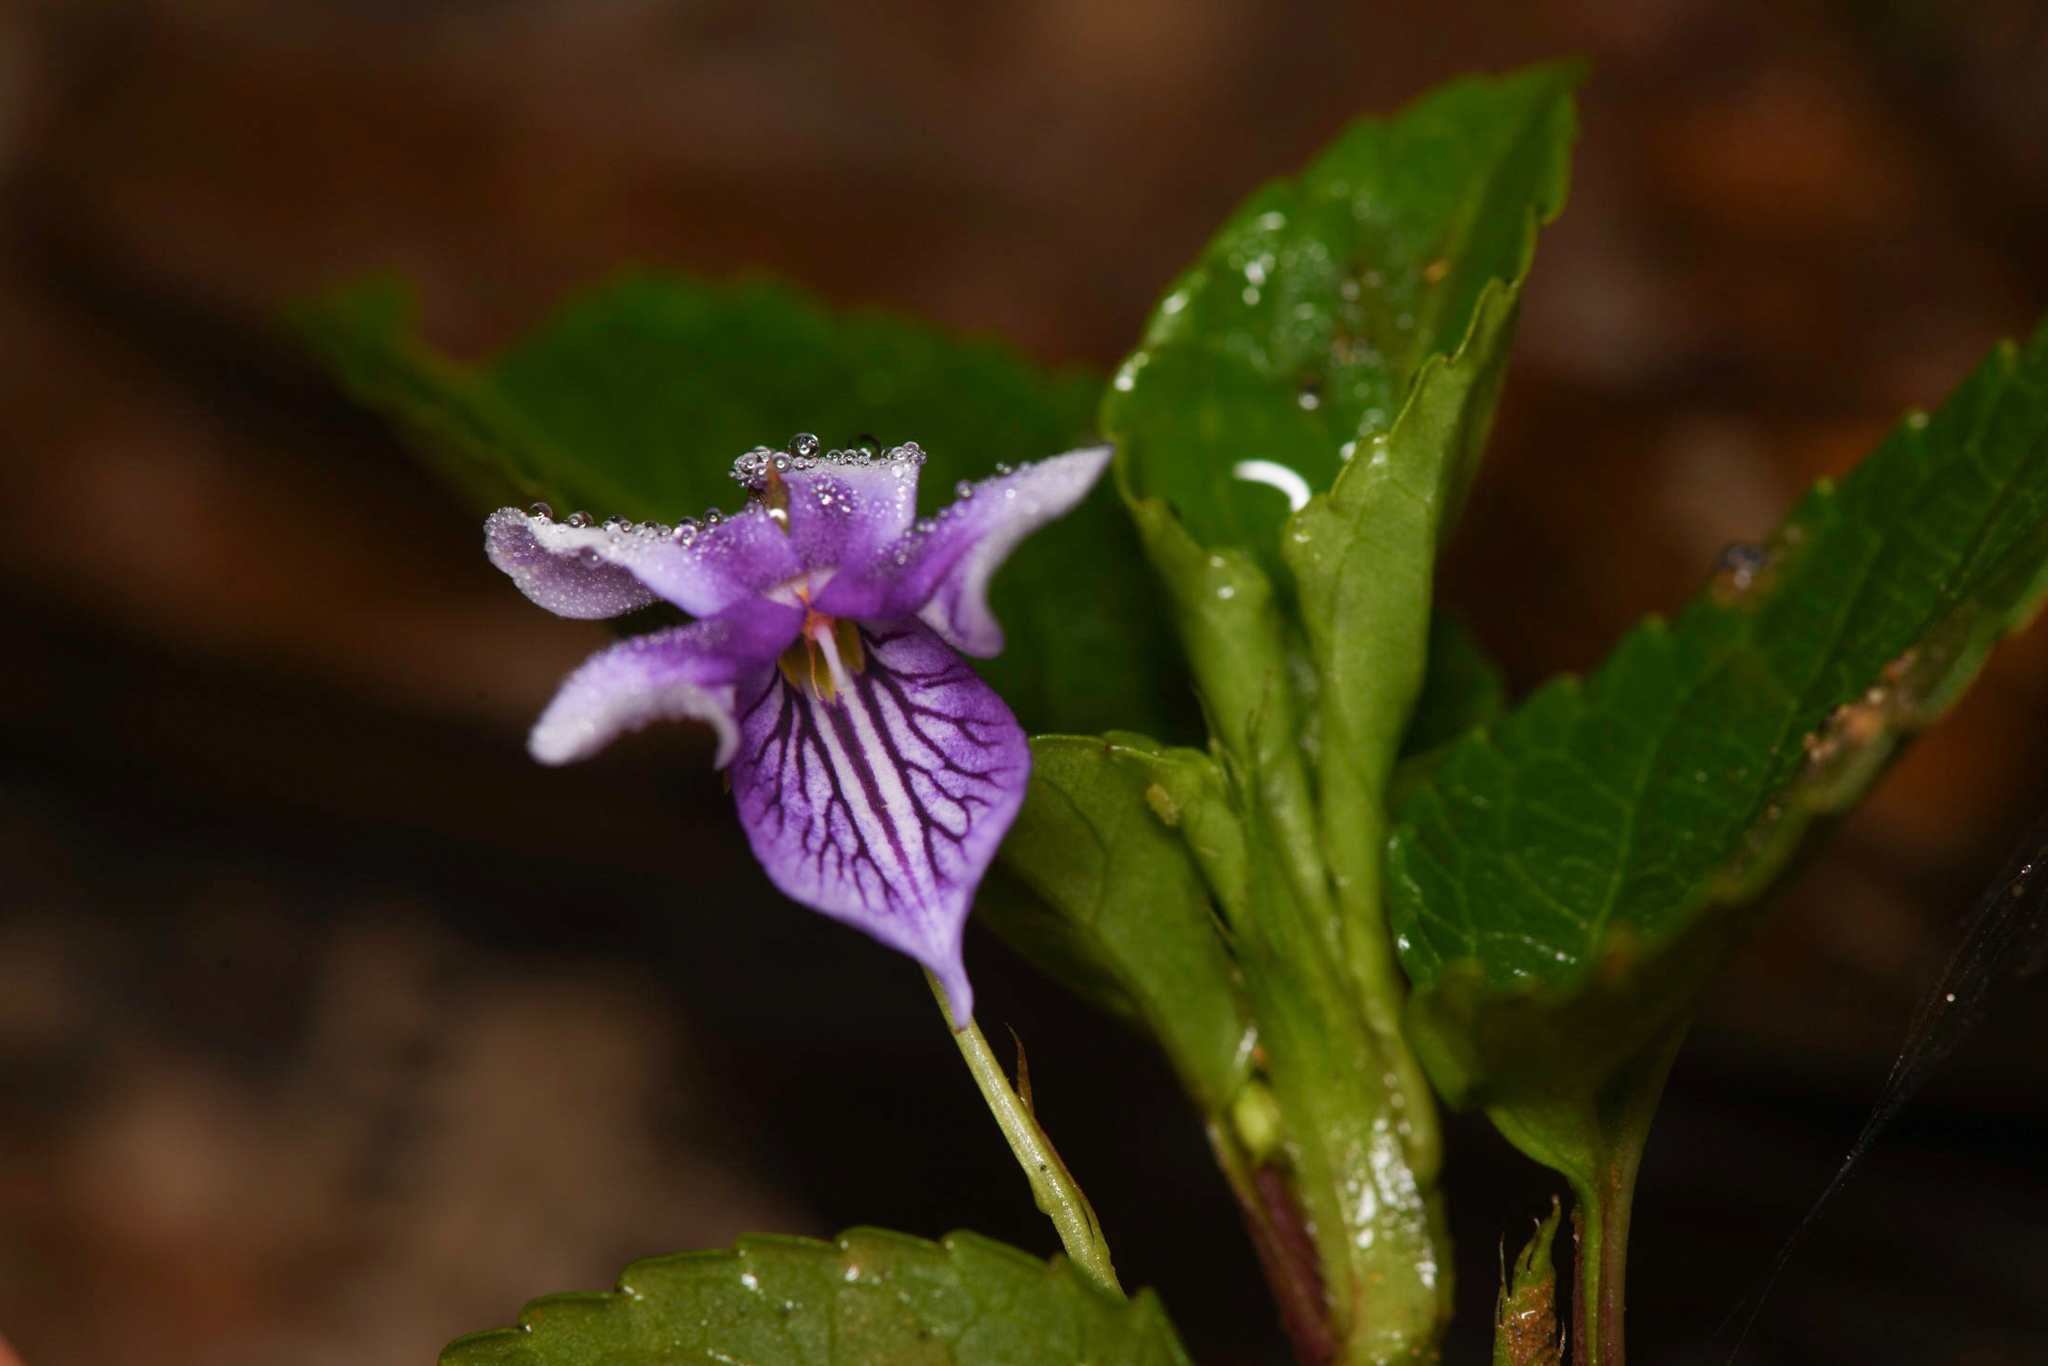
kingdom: Plantae
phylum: Tracheophyta
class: Magnoliopsida
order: Malpighiales
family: Violaceae
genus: Viola
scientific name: Viola scandens
